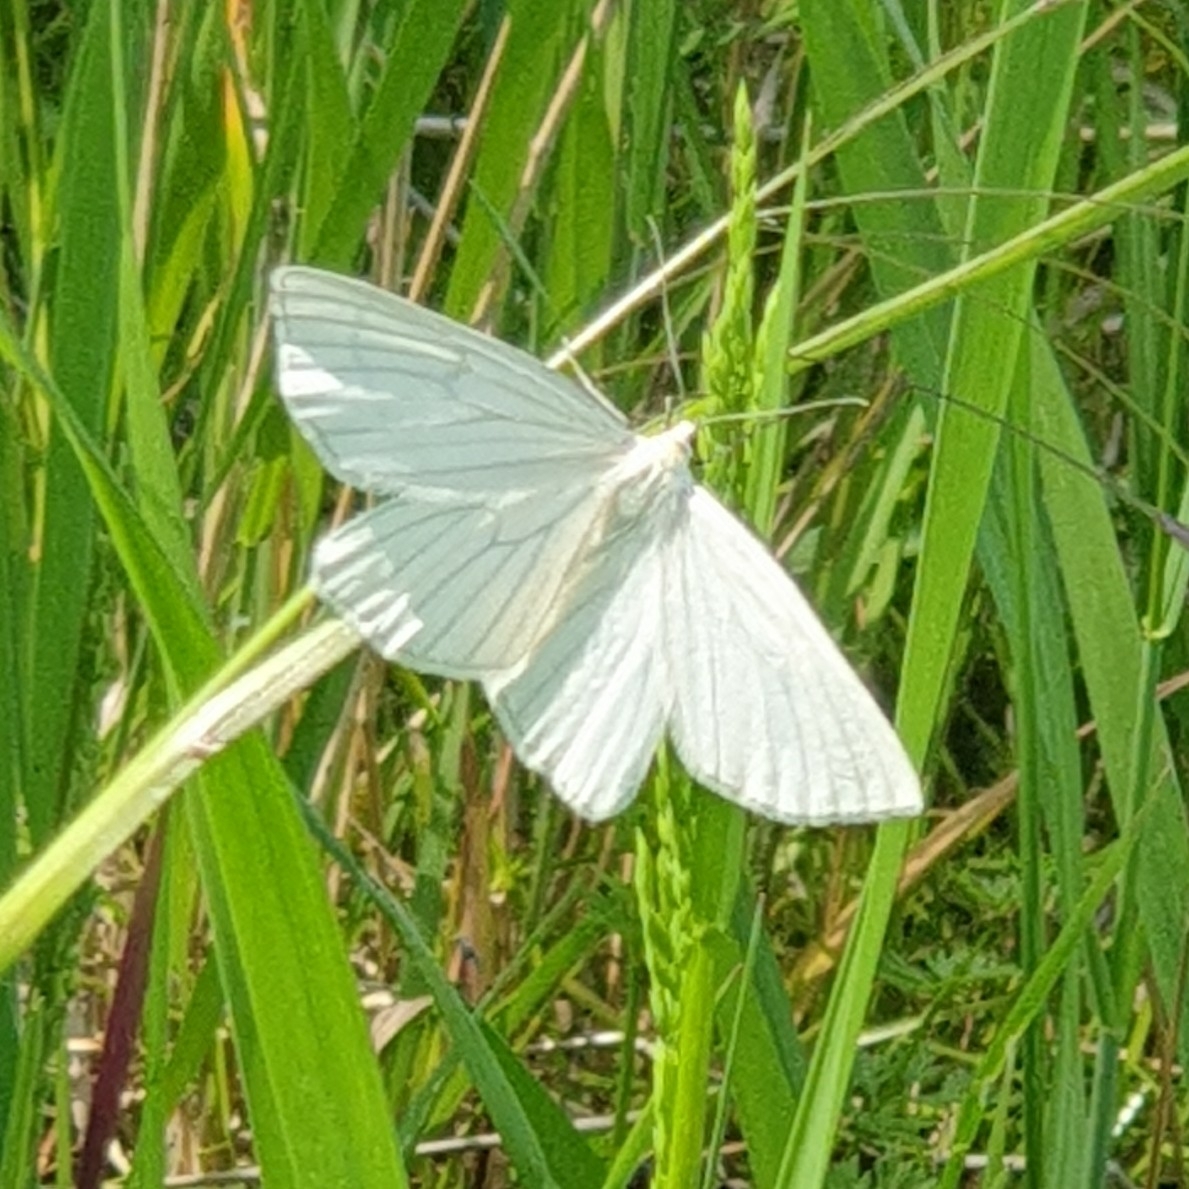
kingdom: Animalia
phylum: Arthropoda
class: Insecta
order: Lepidoptera
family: Geometridae
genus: Siona
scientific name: Siona lineata
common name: Black-veined moth
